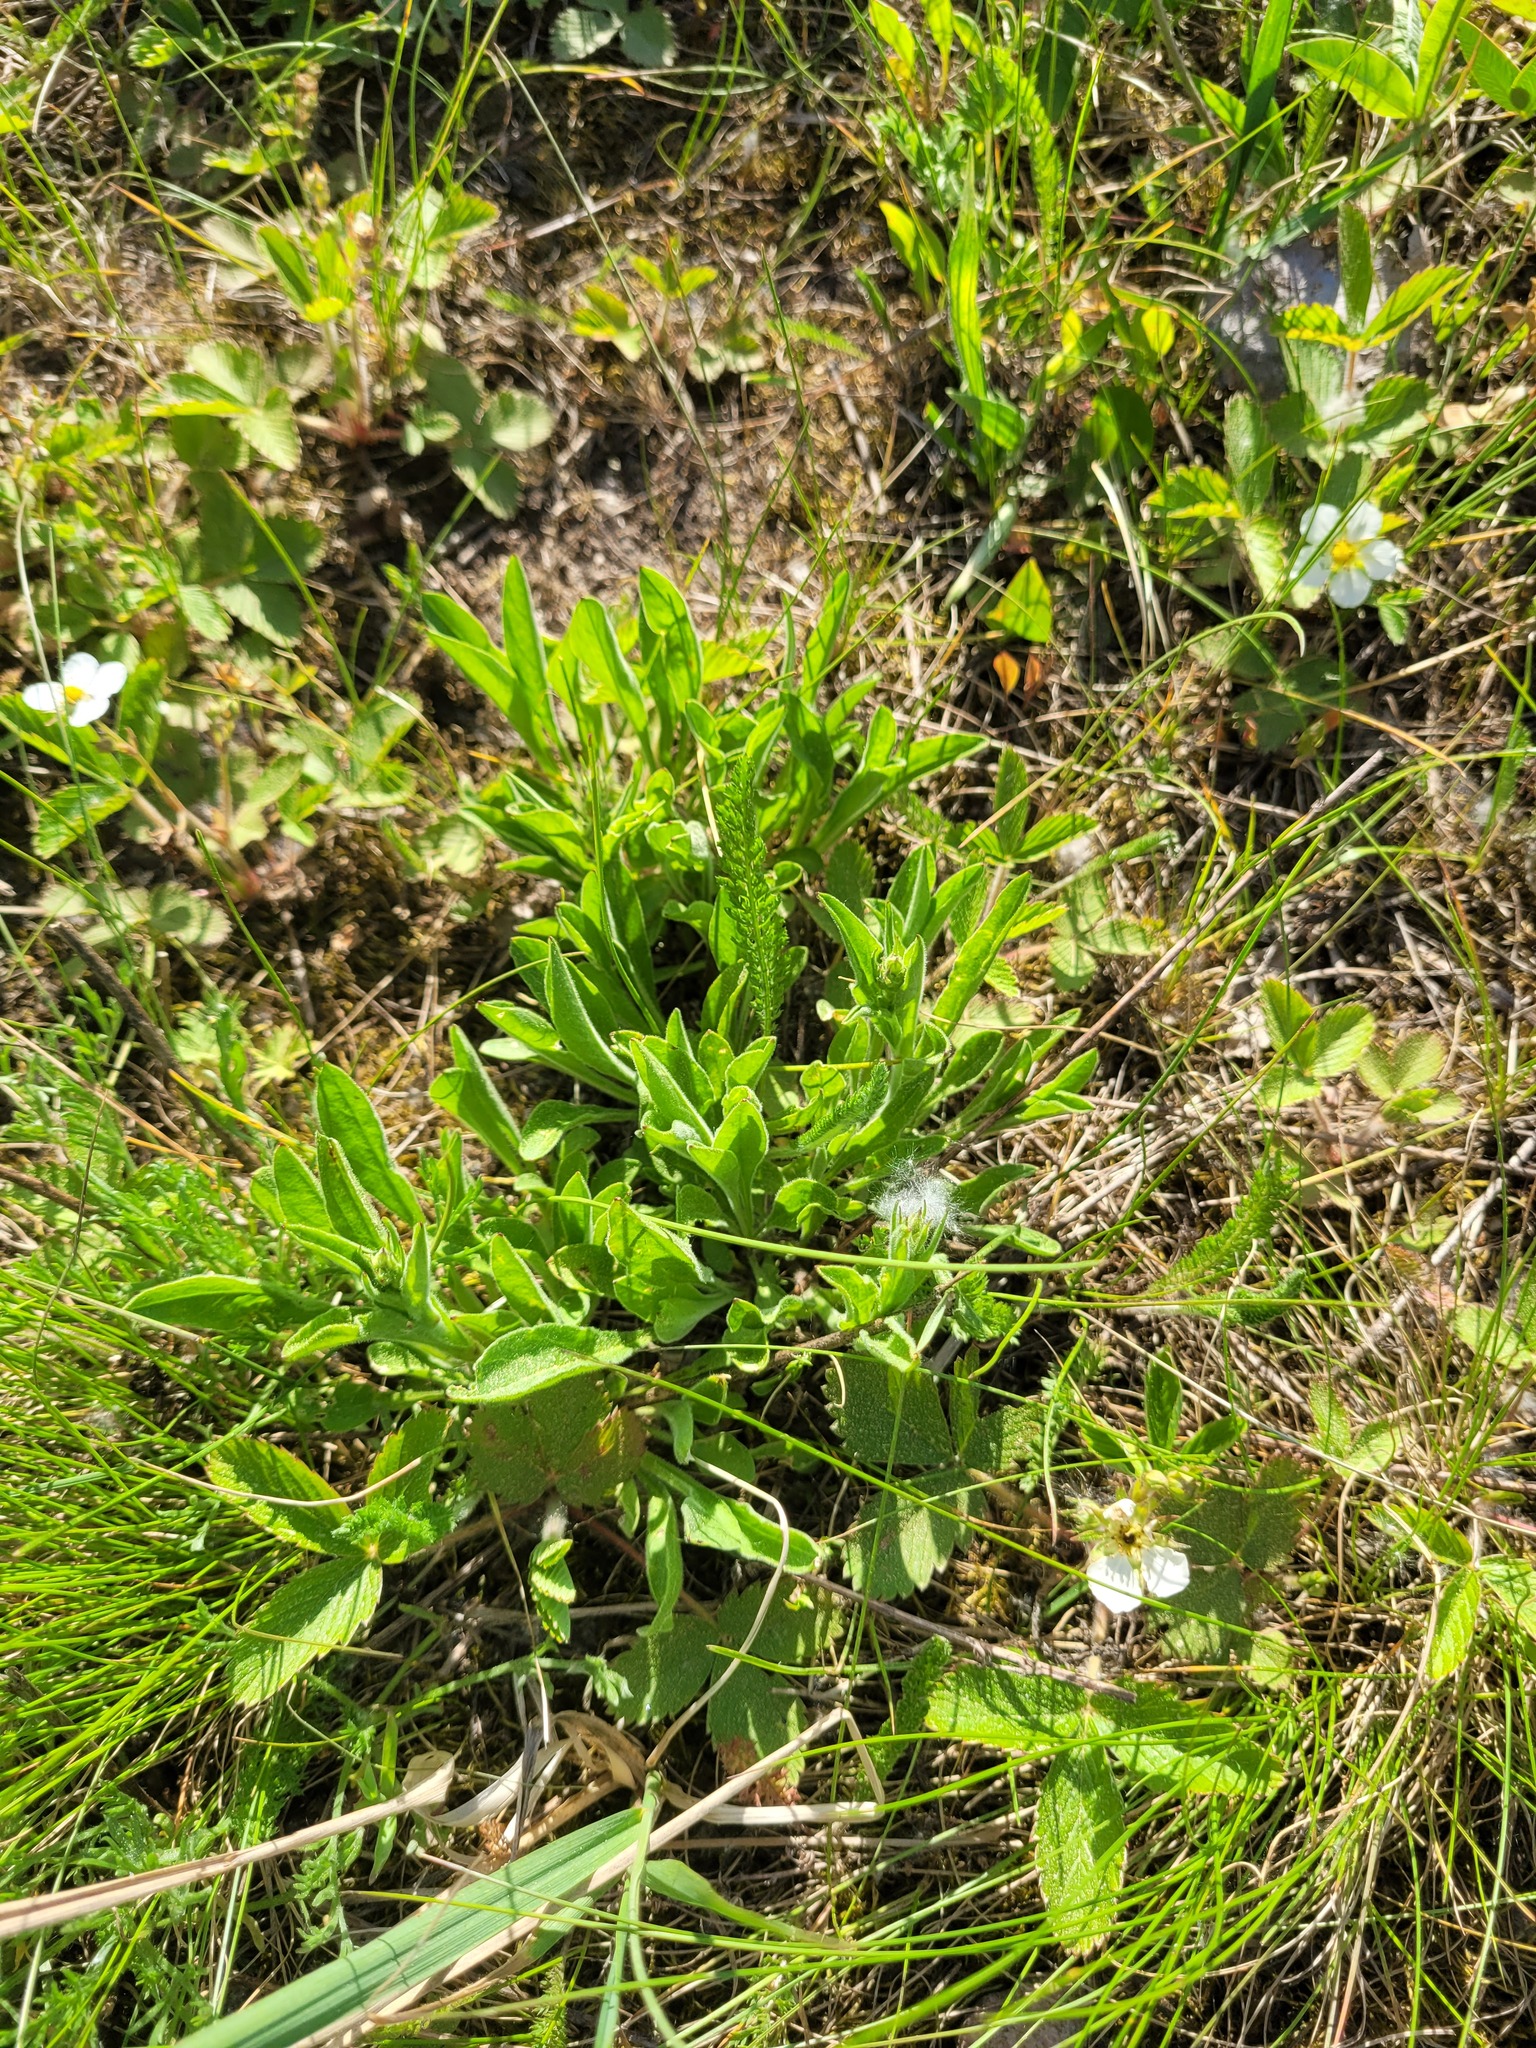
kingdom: Plantae
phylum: Tracheophyta
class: Magnoliopsida
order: Caryophyllales
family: Caryophyllaceae
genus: Silene
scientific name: Silene nutans
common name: Nottingham catchfly
